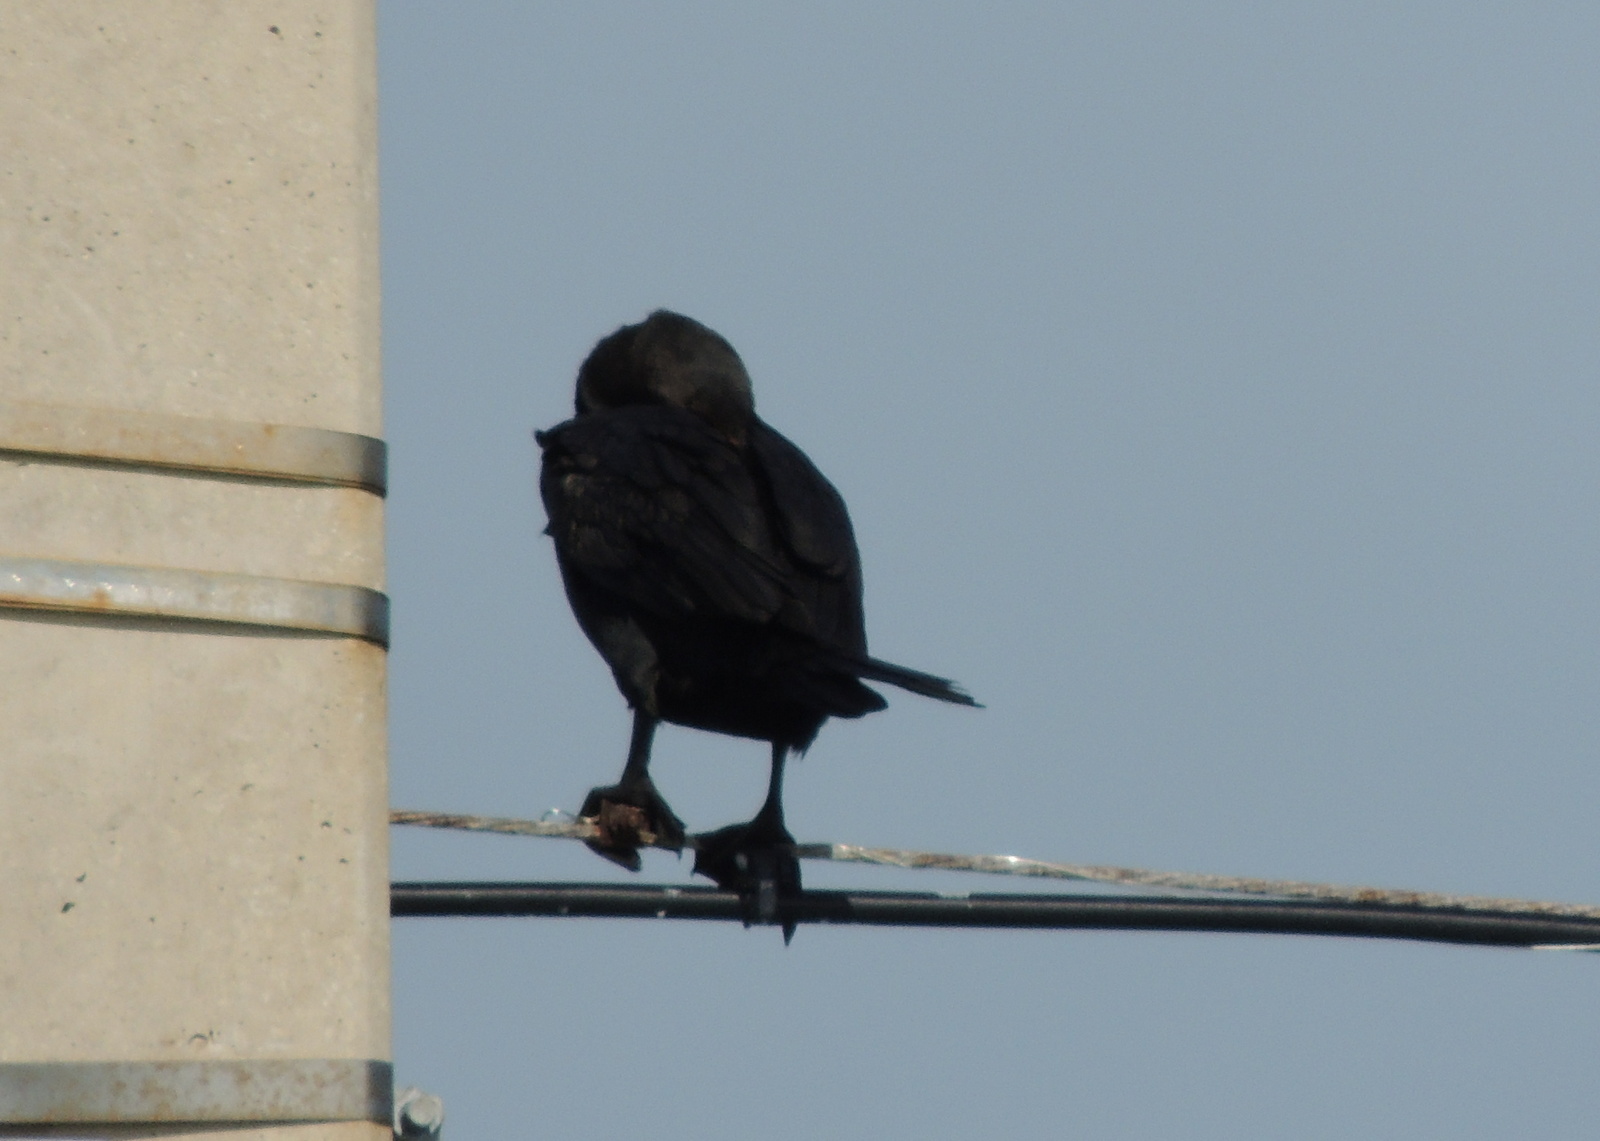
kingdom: Animalia
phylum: Chordata
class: Aves
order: Suliformes
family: Phalacrocoracidae
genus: Phalacrocorax
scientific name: Phalacrocorax auritus
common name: Double-crested cormorant
